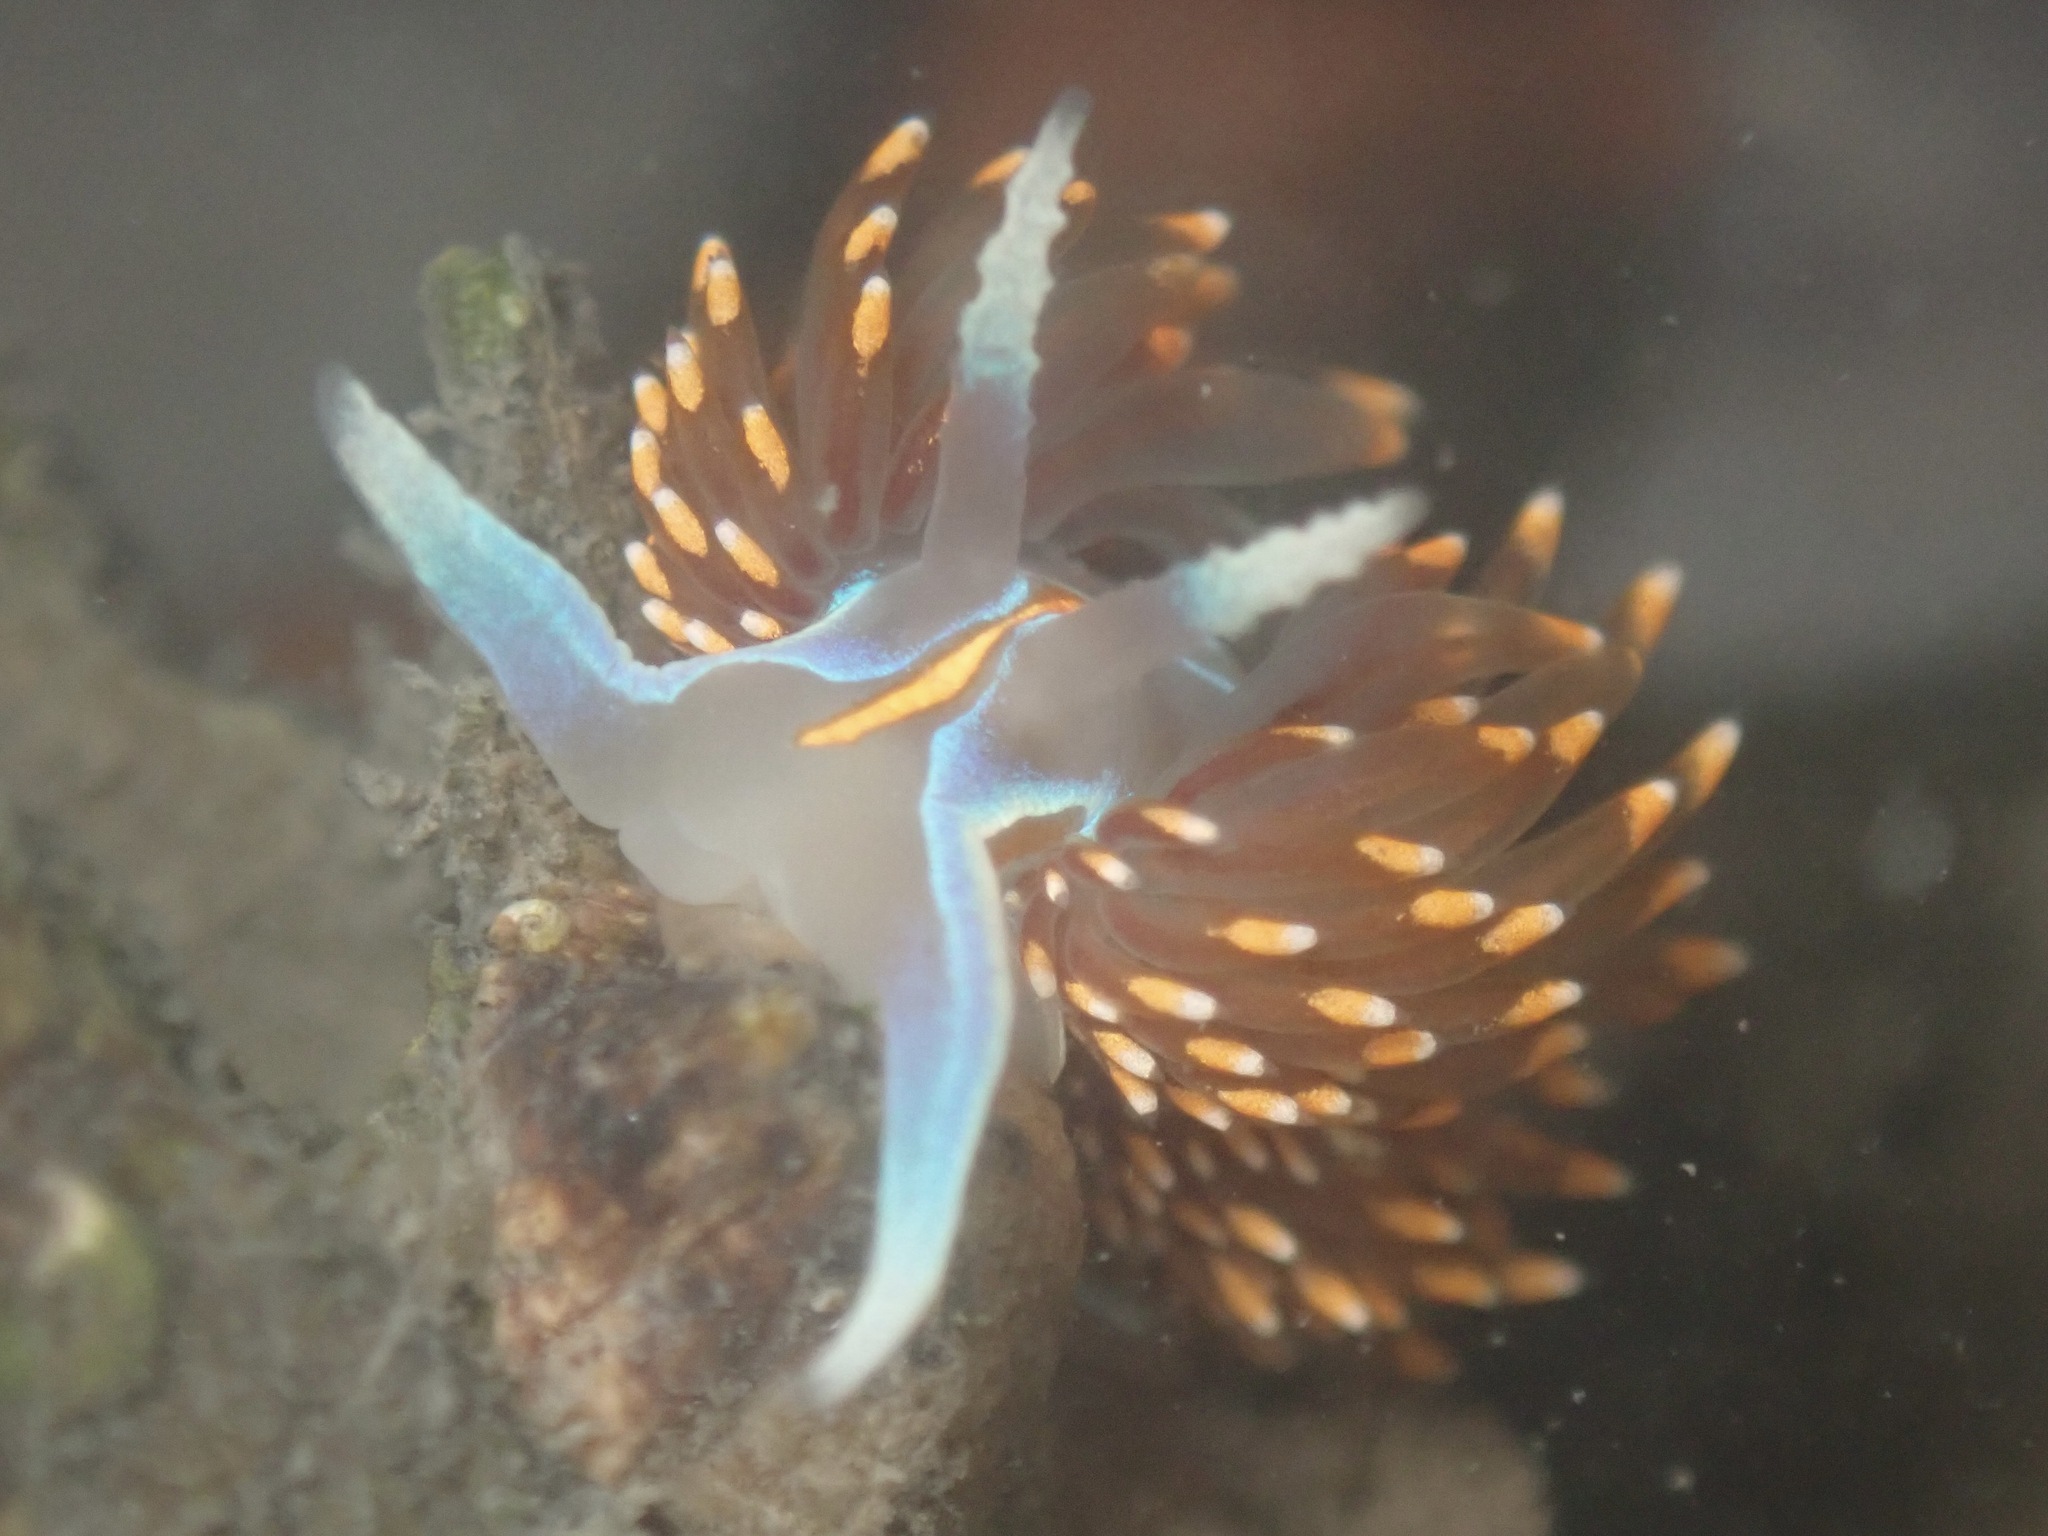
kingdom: Animalia
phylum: Mollusca
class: Gastropoda
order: Nudibranchia
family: Myrrhinidae
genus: Hermissenda
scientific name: Hermissenda opalescens
